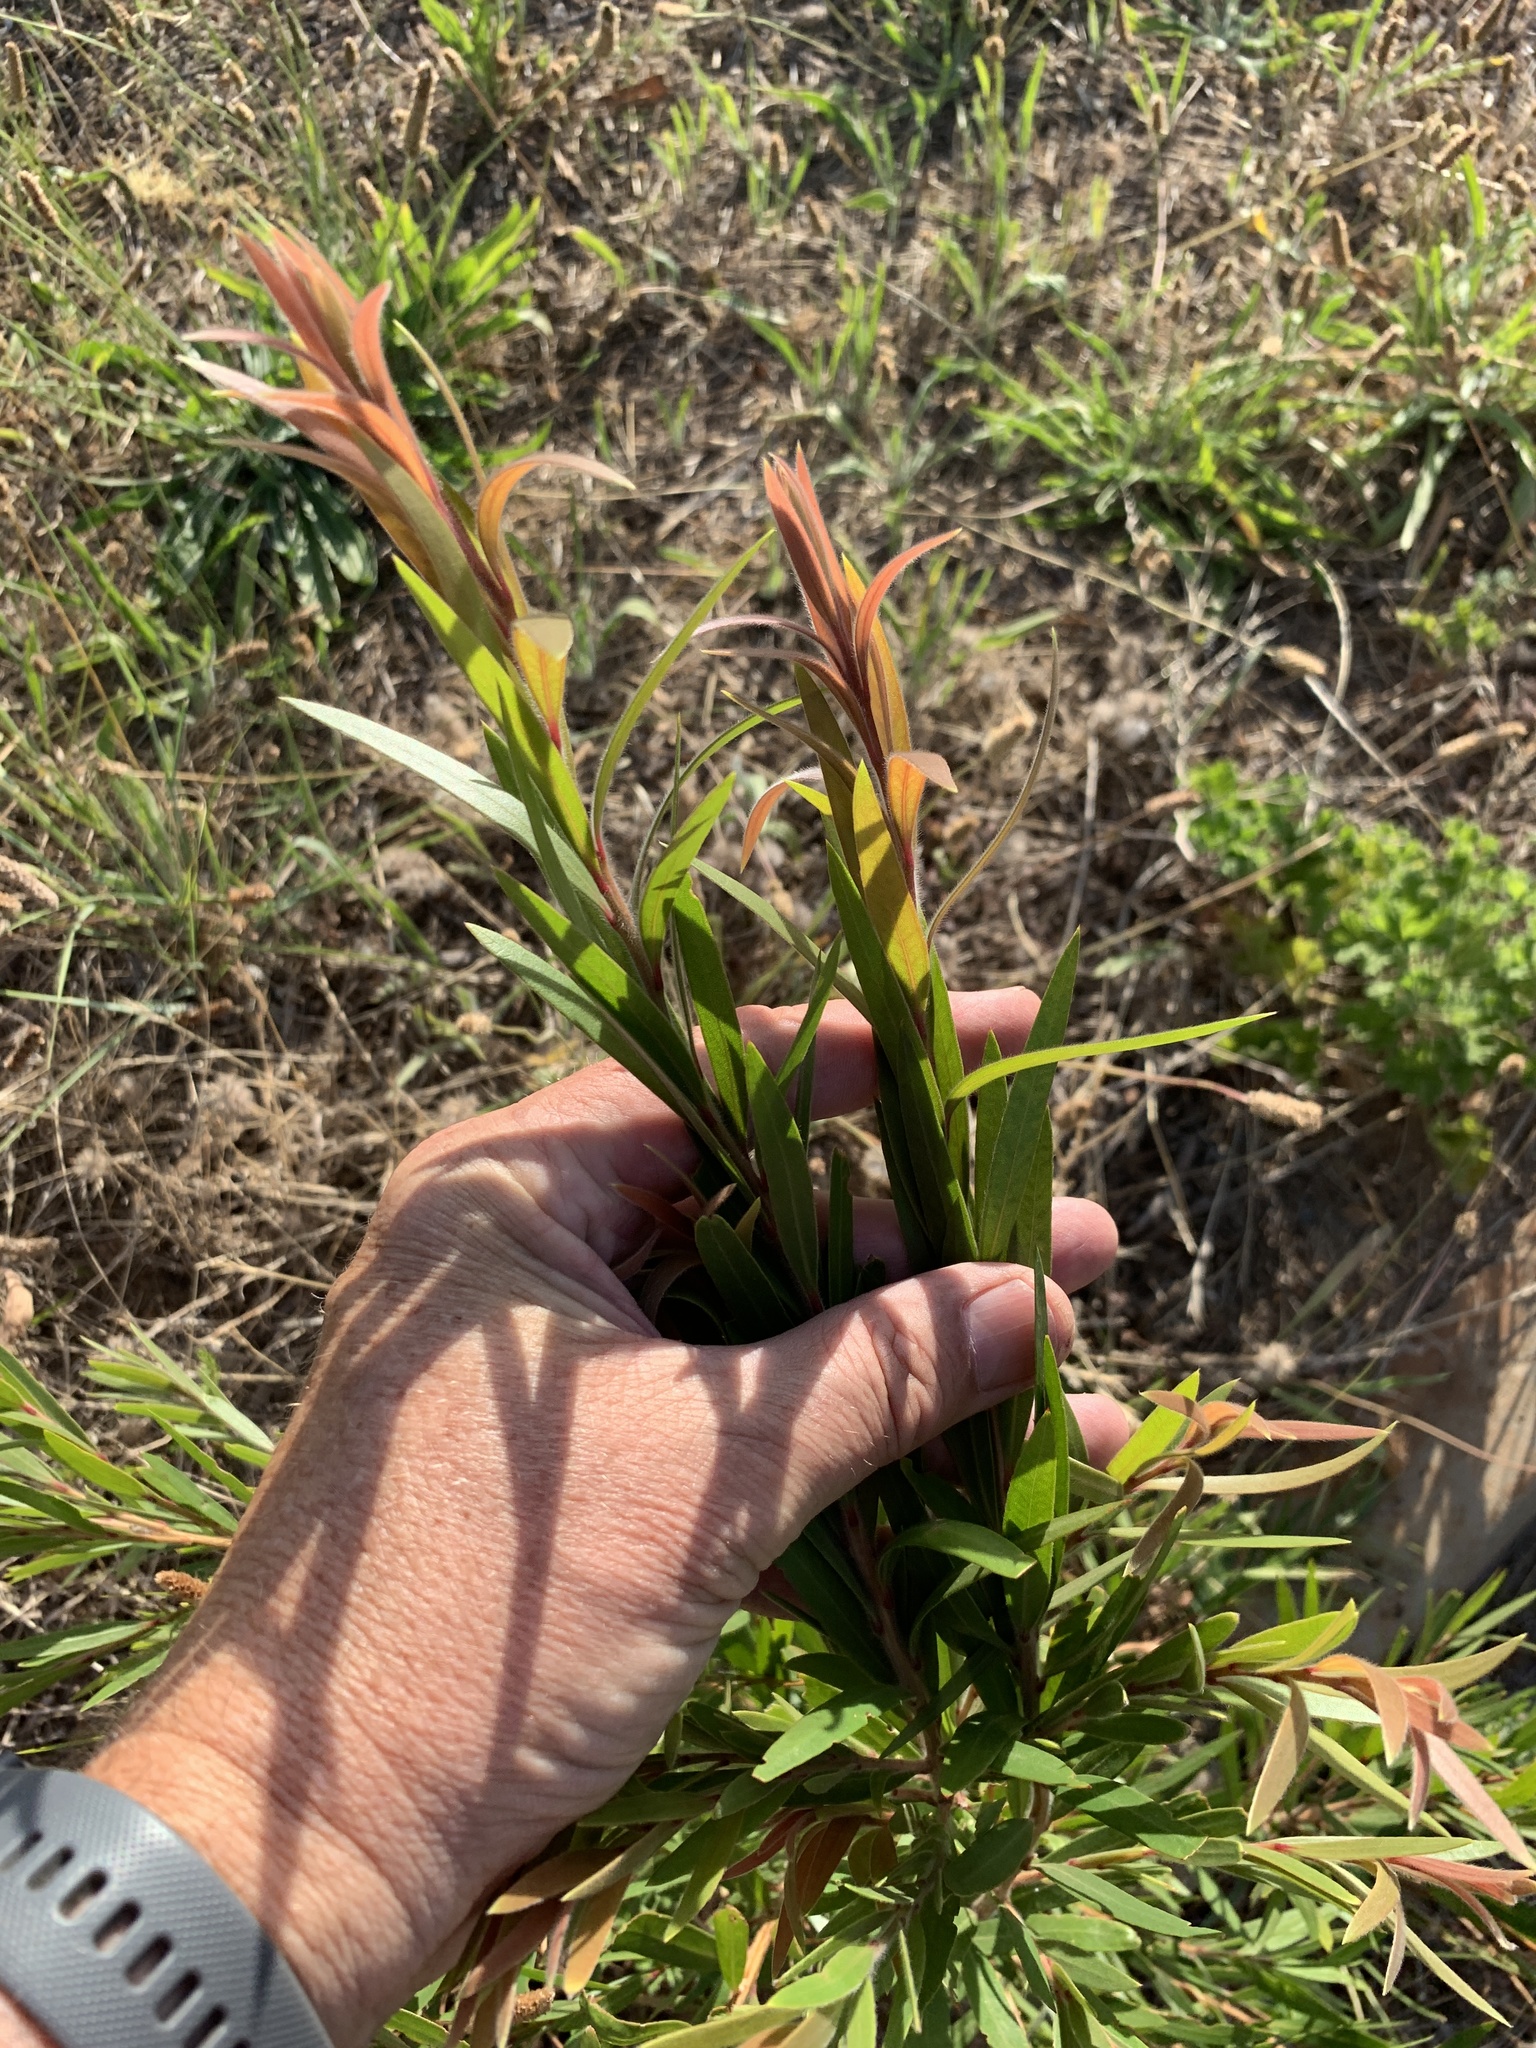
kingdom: Plantae
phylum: Tracheophyta
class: Magnoliopsida
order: Myrtales
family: Myrtaceae
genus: Callistemon
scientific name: Callistemon viminalis
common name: Drooping bottlebrush
